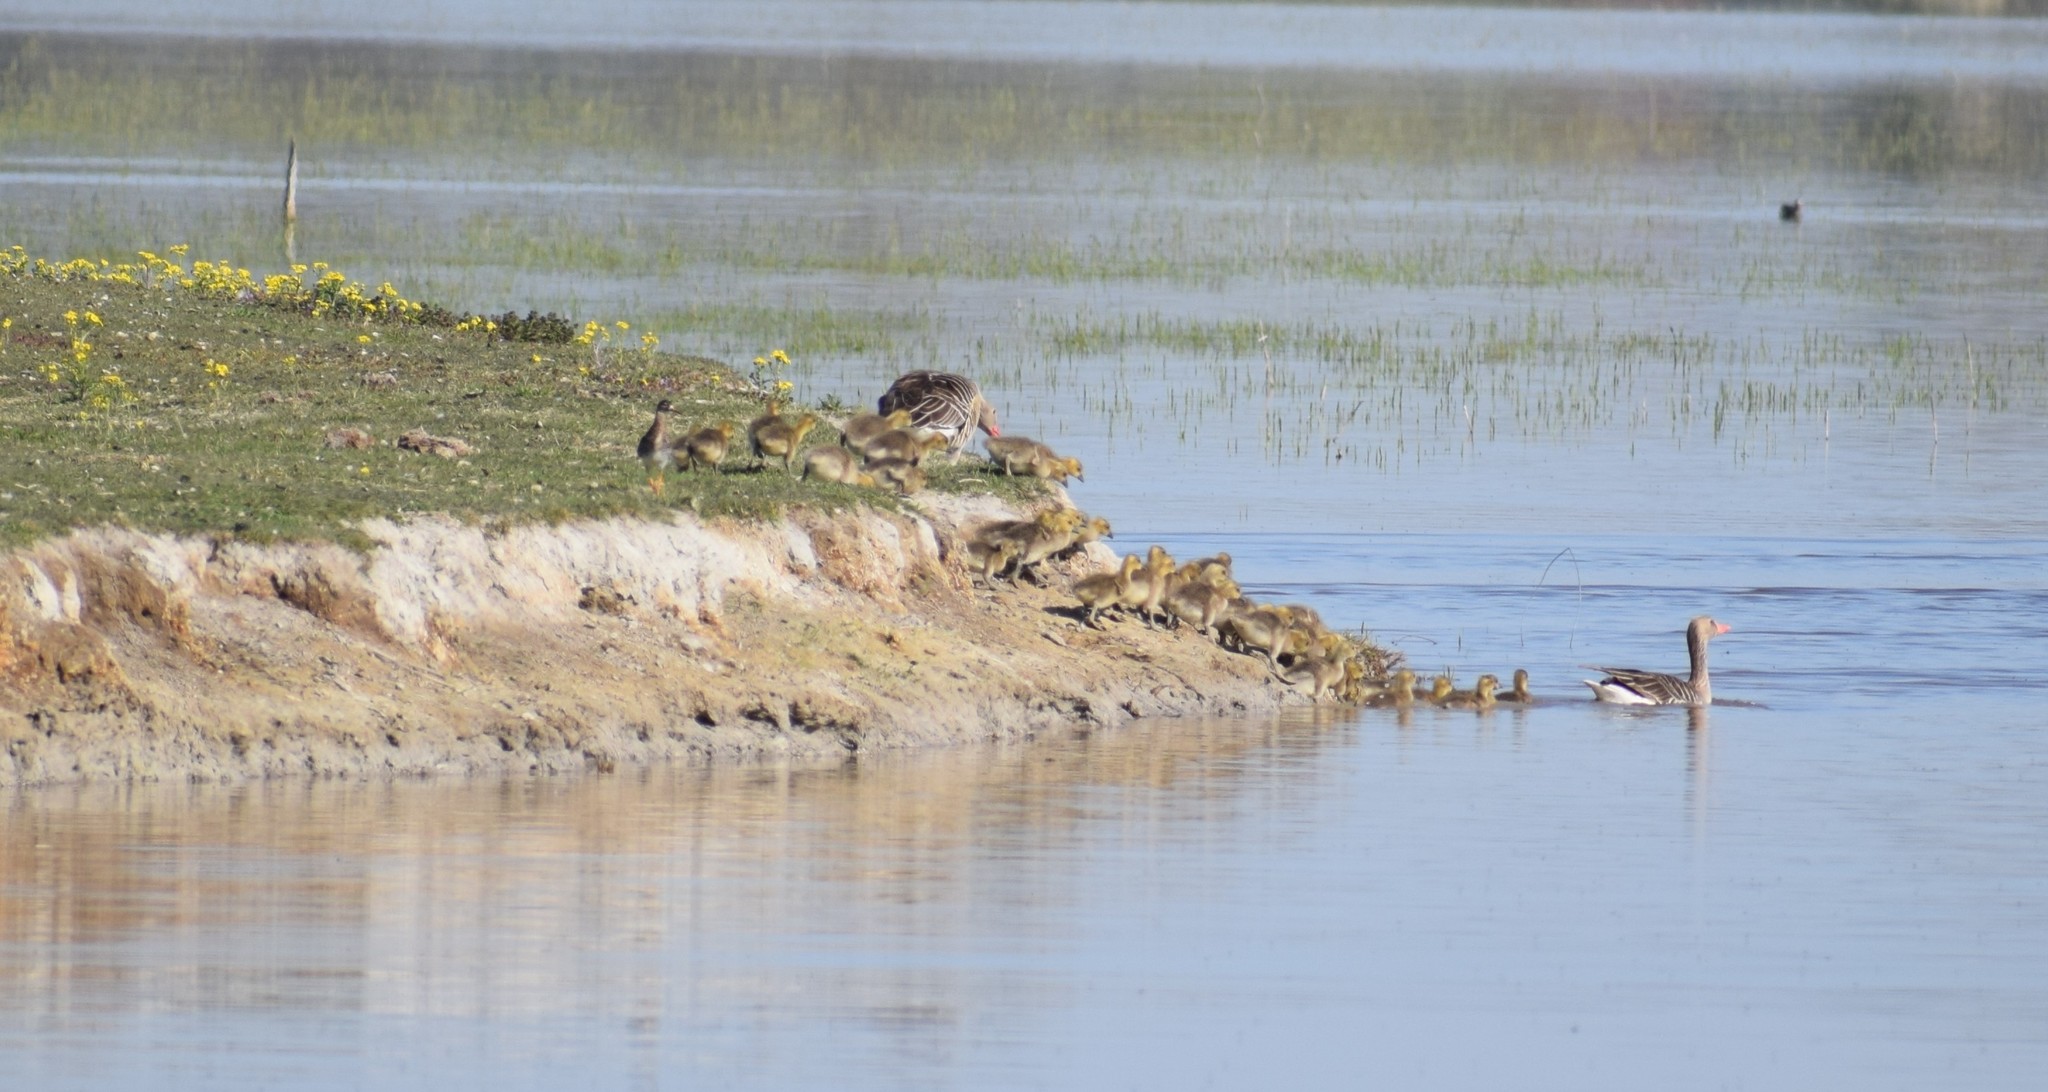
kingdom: Animalia
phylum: Chordata
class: Aves
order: Anseriformes
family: Anatidae
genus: Anser
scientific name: Anser anser
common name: Greylag goose
